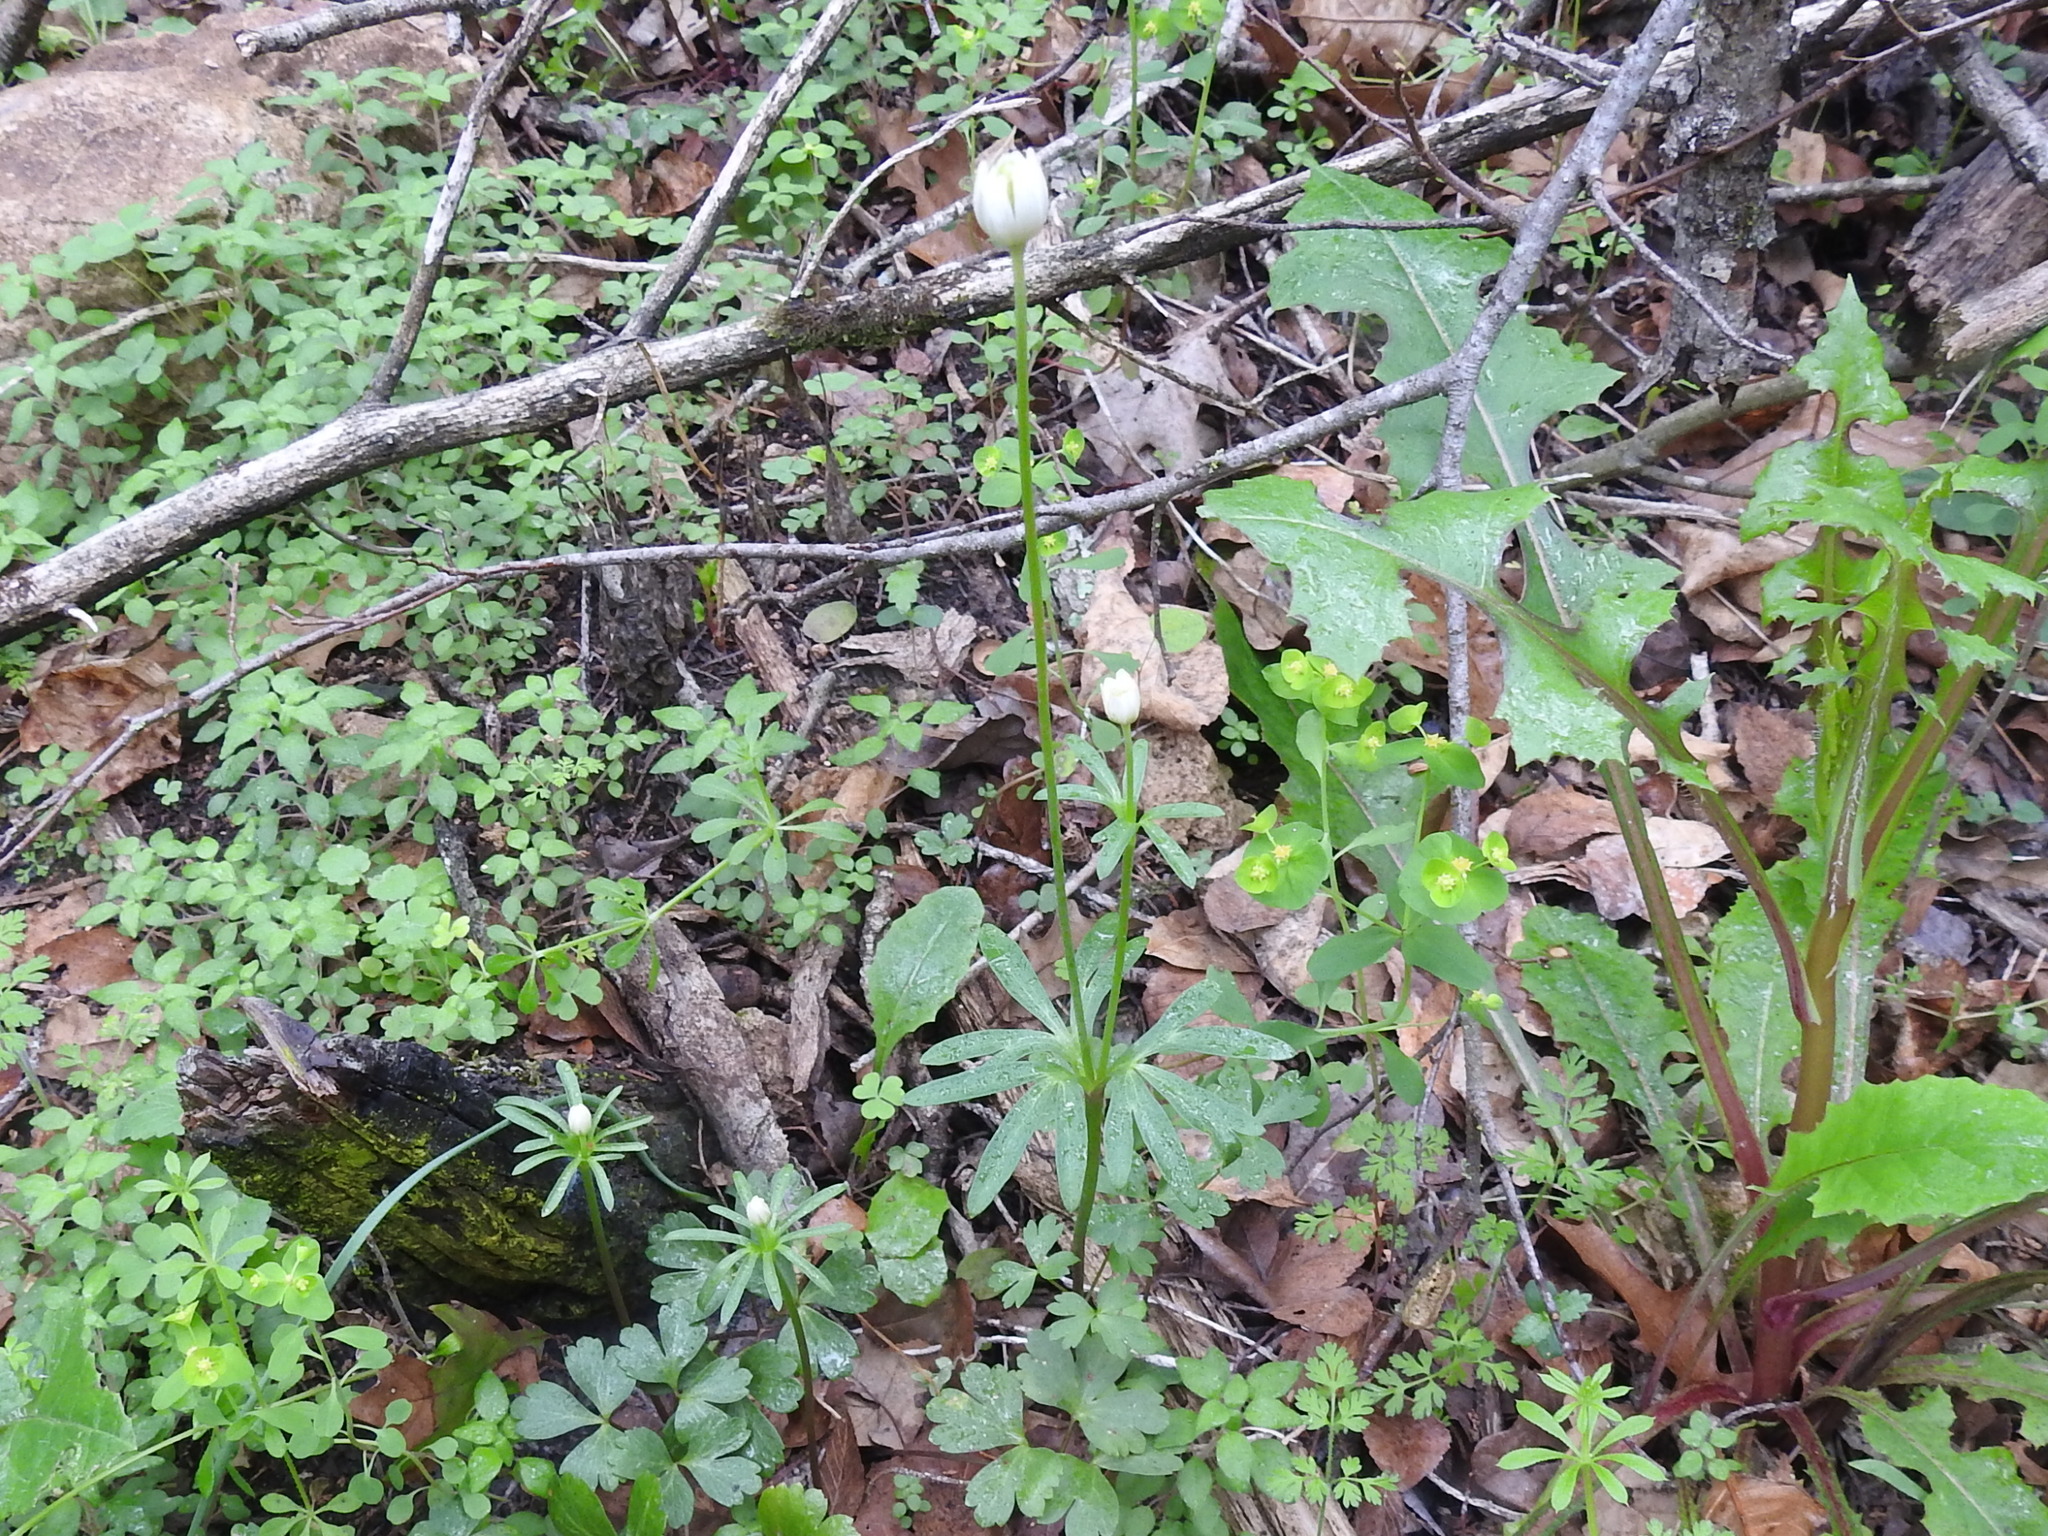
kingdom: Plantae
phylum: Tracheophyta
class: Magnoliopsida
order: Ranunculales
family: Ranunculaceae
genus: Anemone
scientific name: Anemone edwardsiana
